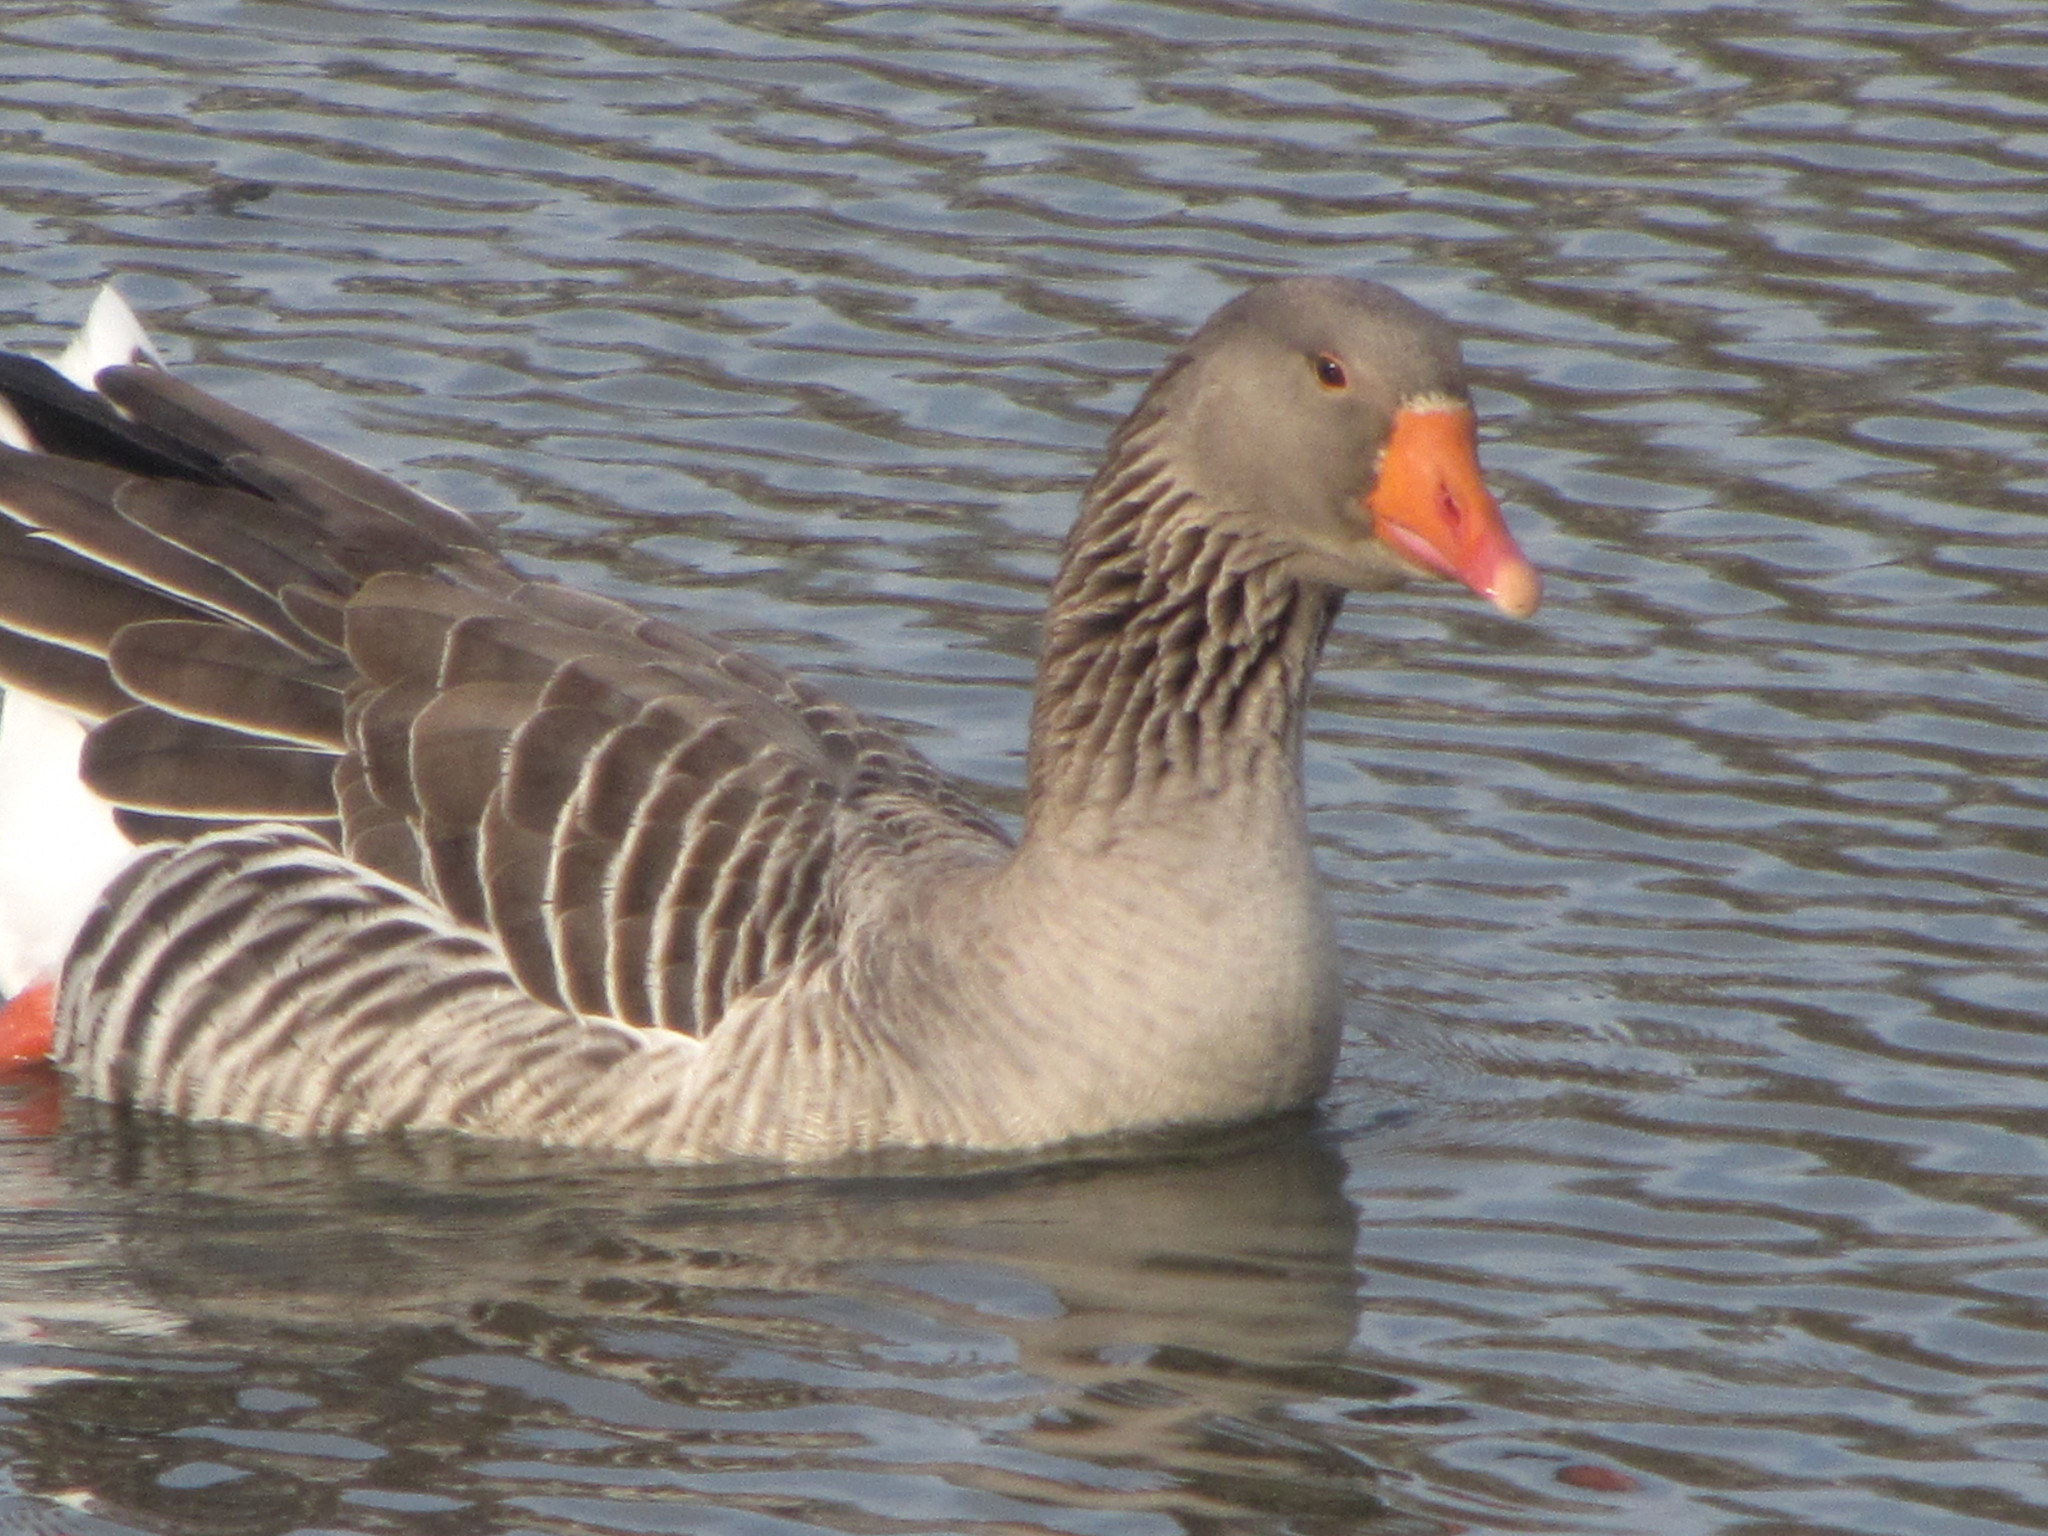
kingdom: Animalia
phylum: Chordata
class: Aves
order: Anseriformes
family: Anatidae
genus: Anser
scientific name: Anser anser
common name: Greylag goose
